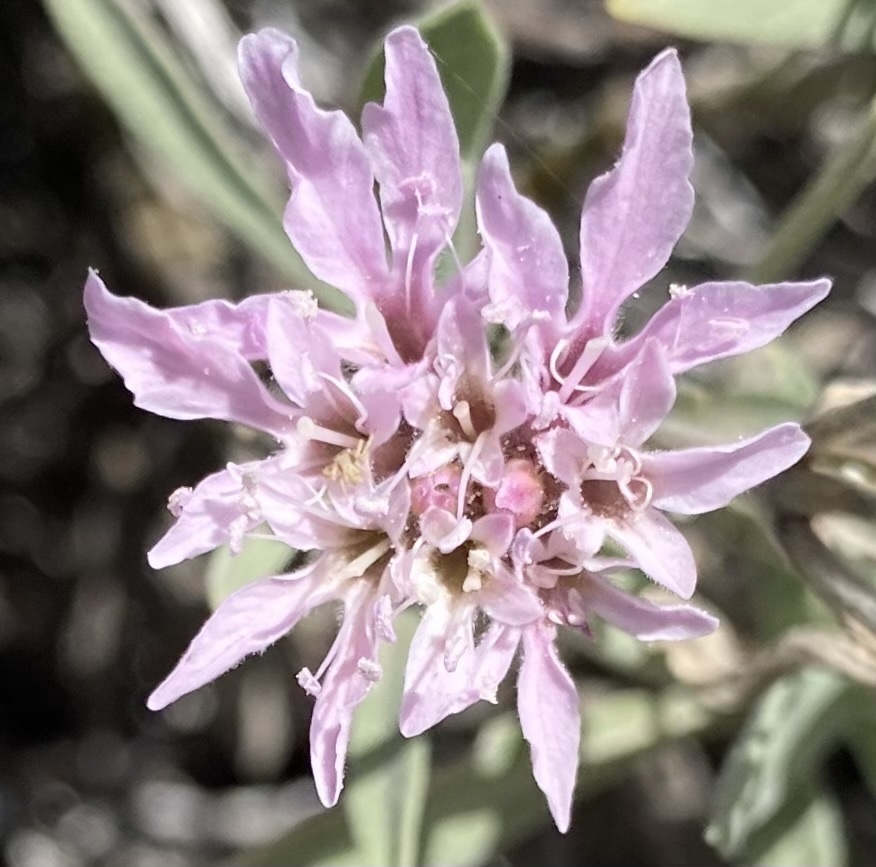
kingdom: Plantae
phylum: Tracheophyta
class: Magnoliopsida
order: Dipsacales
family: Caprifoliaceae
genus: Pterocephalus
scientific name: Pterocephalus lasiospermus
